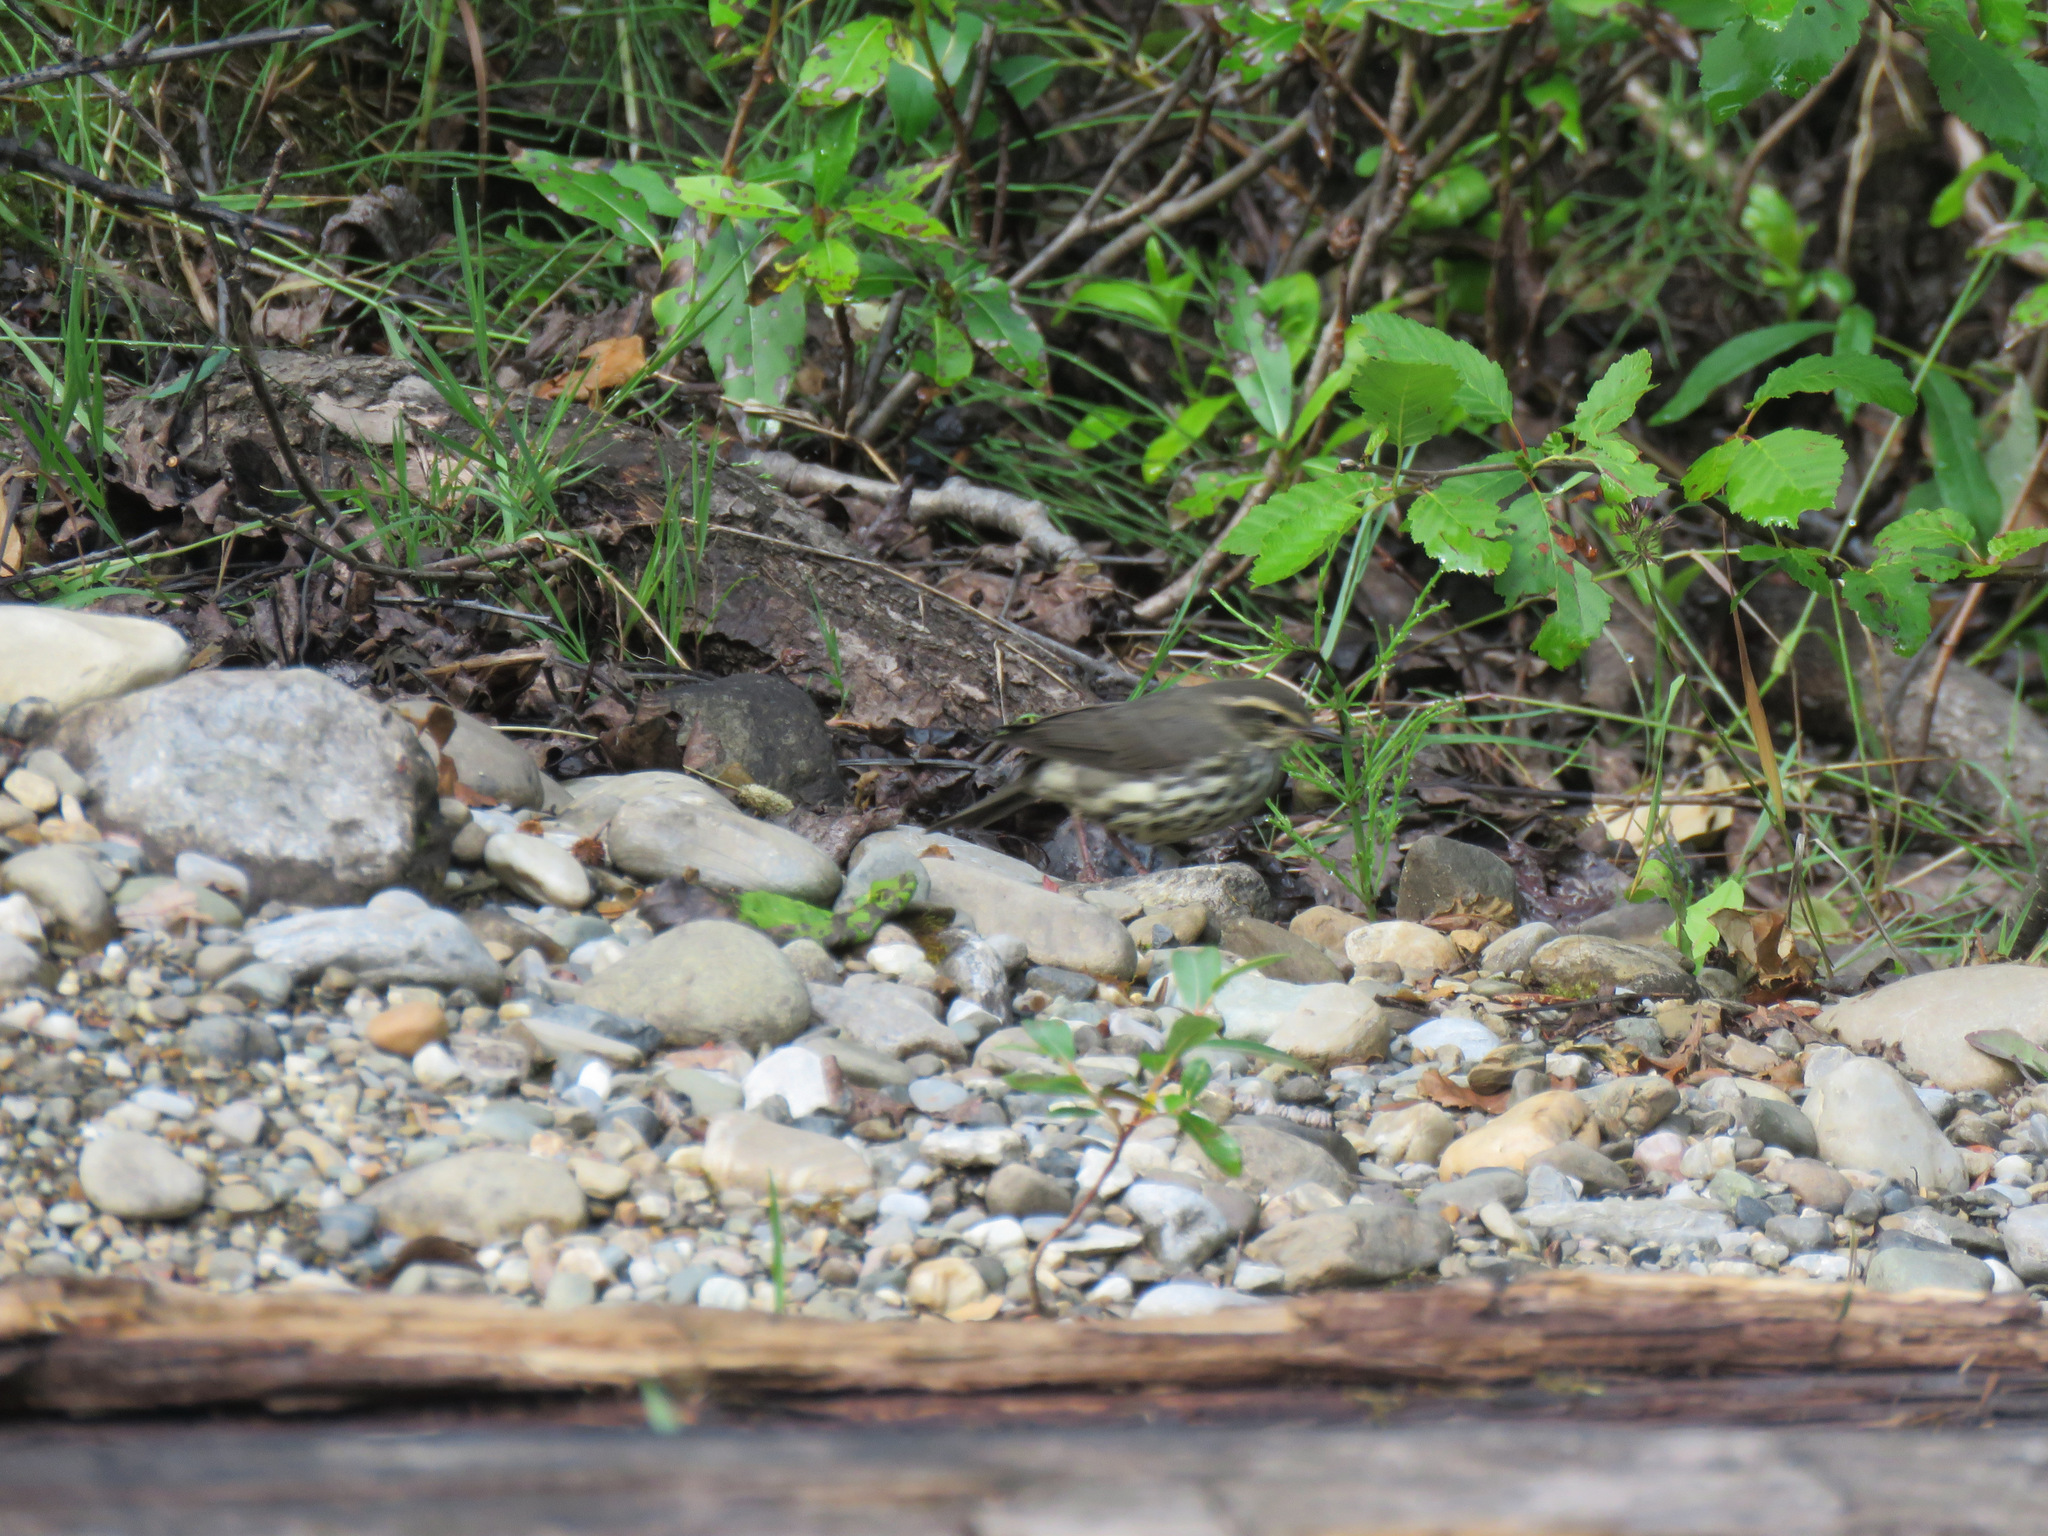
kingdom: Animalia
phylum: Chordata
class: Aves
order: Passeriformes
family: Parulidae
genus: Parkesia
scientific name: Parkesia noveboracensis
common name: Northern waterthrush
